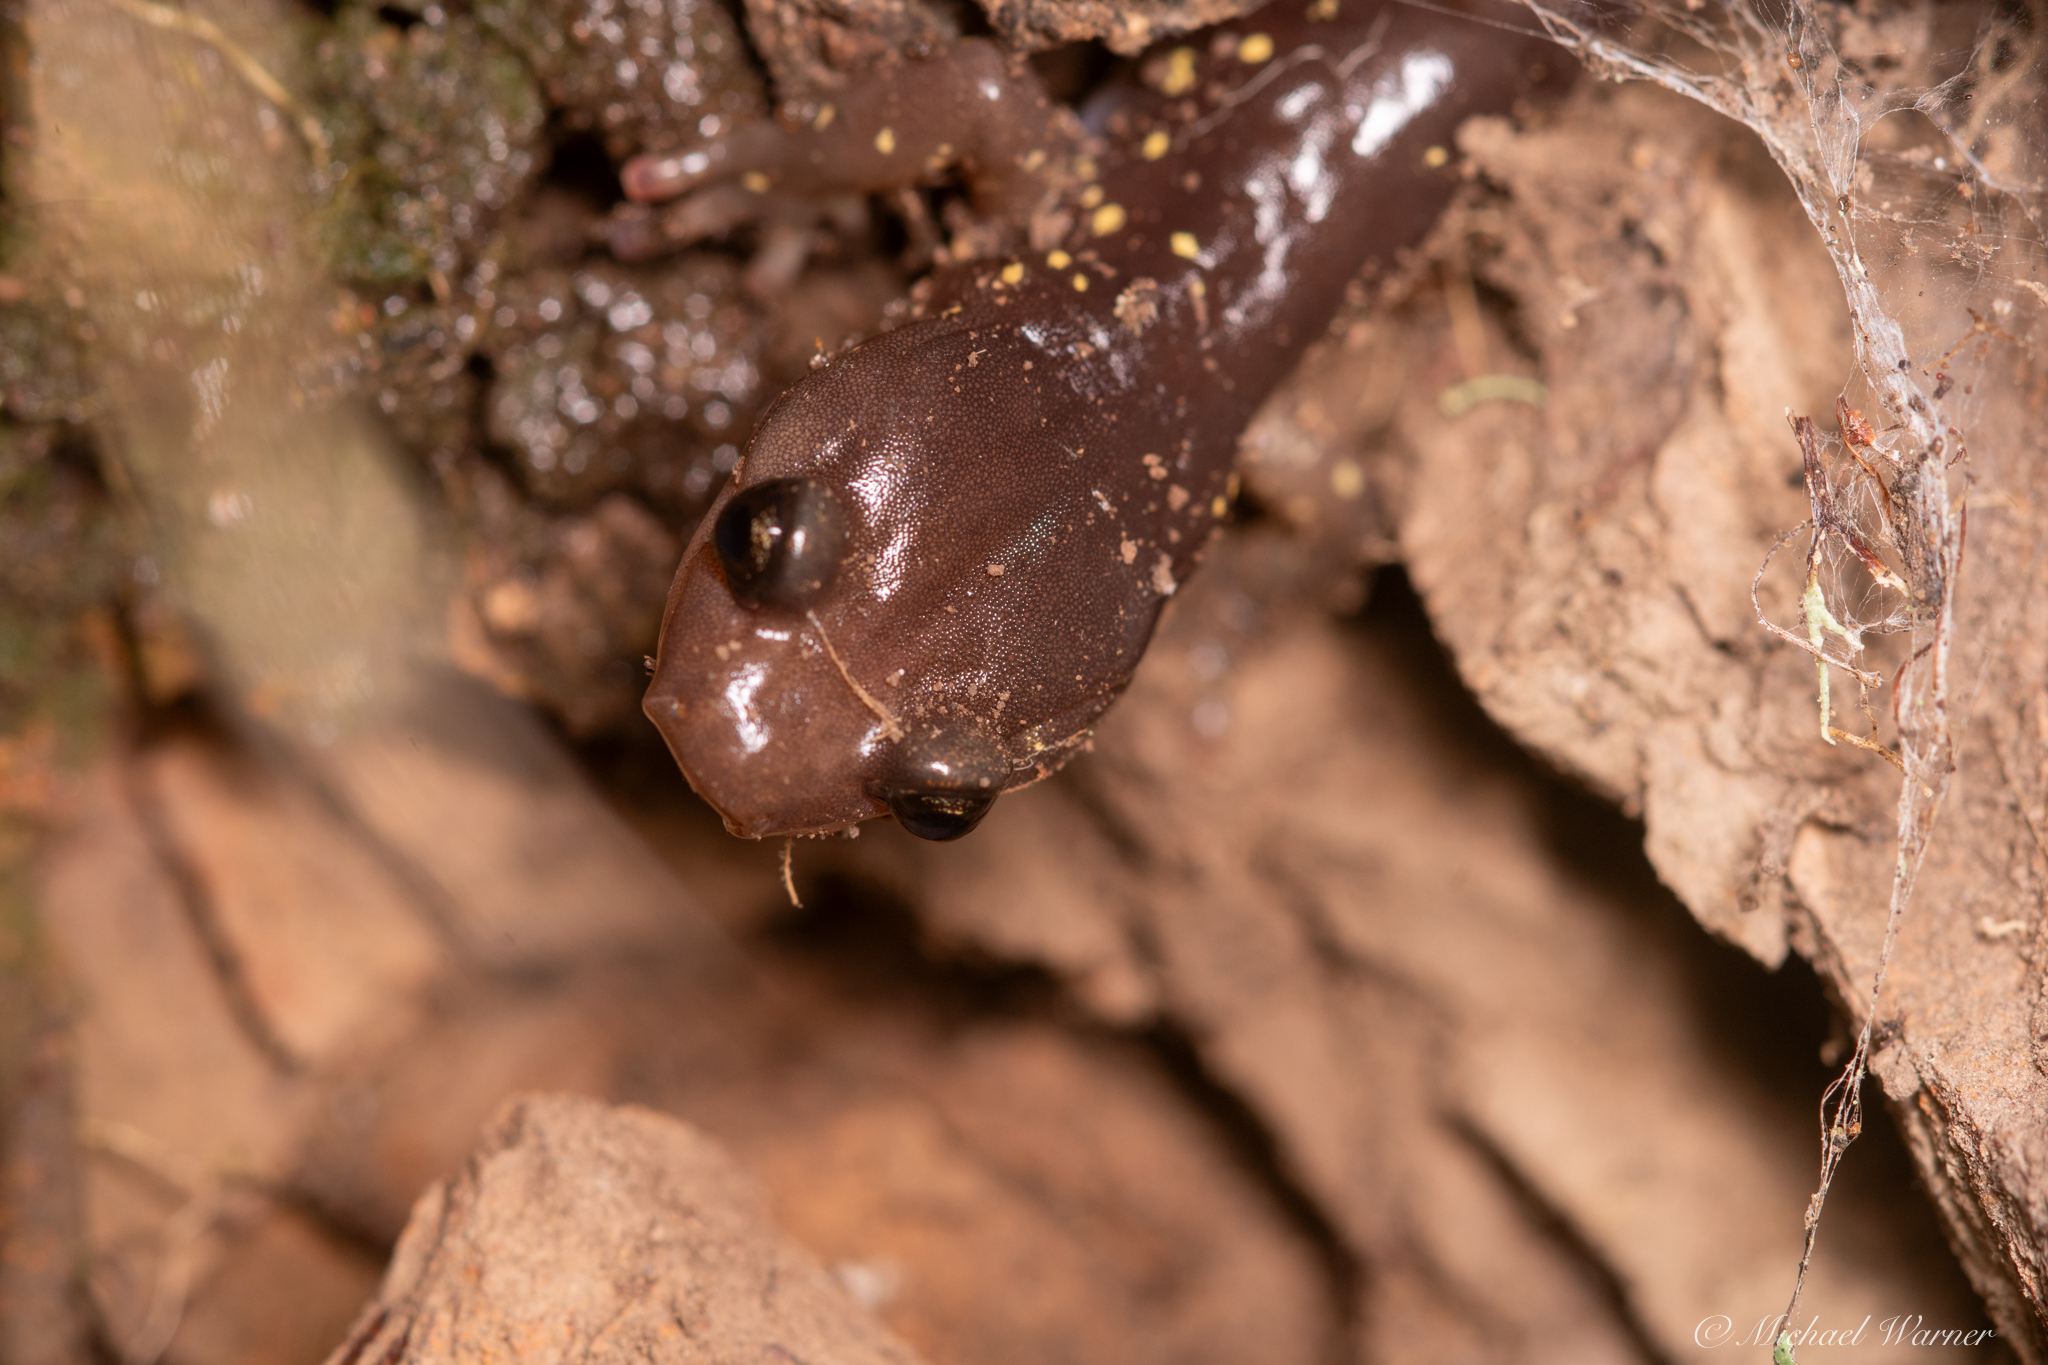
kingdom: Animalia
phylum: Chordata
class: Amphibia
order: Caudata
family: Plethodontidae
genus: Aneides
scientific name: Aneides lugubris
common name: Arboreal salamander
